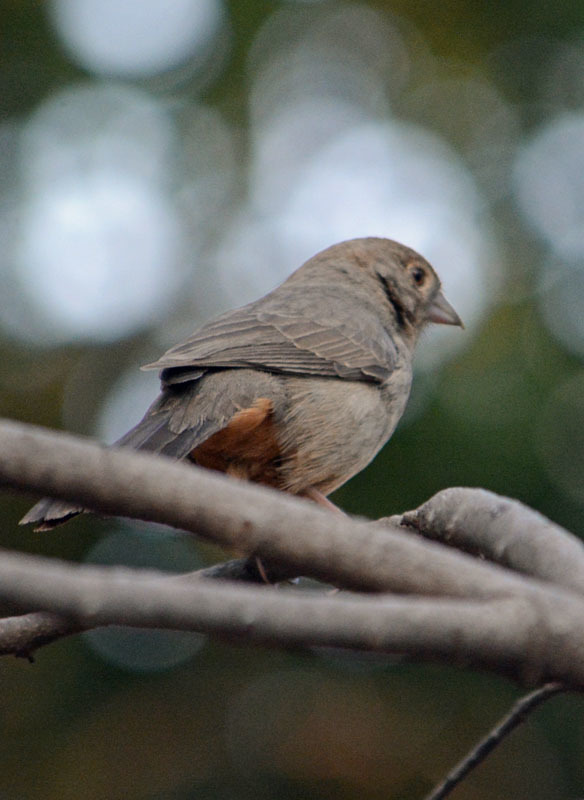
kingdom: Animalia
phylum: Chordata
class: Aves
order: Passeriformes
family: Passerellidae
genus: Melozone
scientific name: Melozone fusca
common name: Canyon towhee
